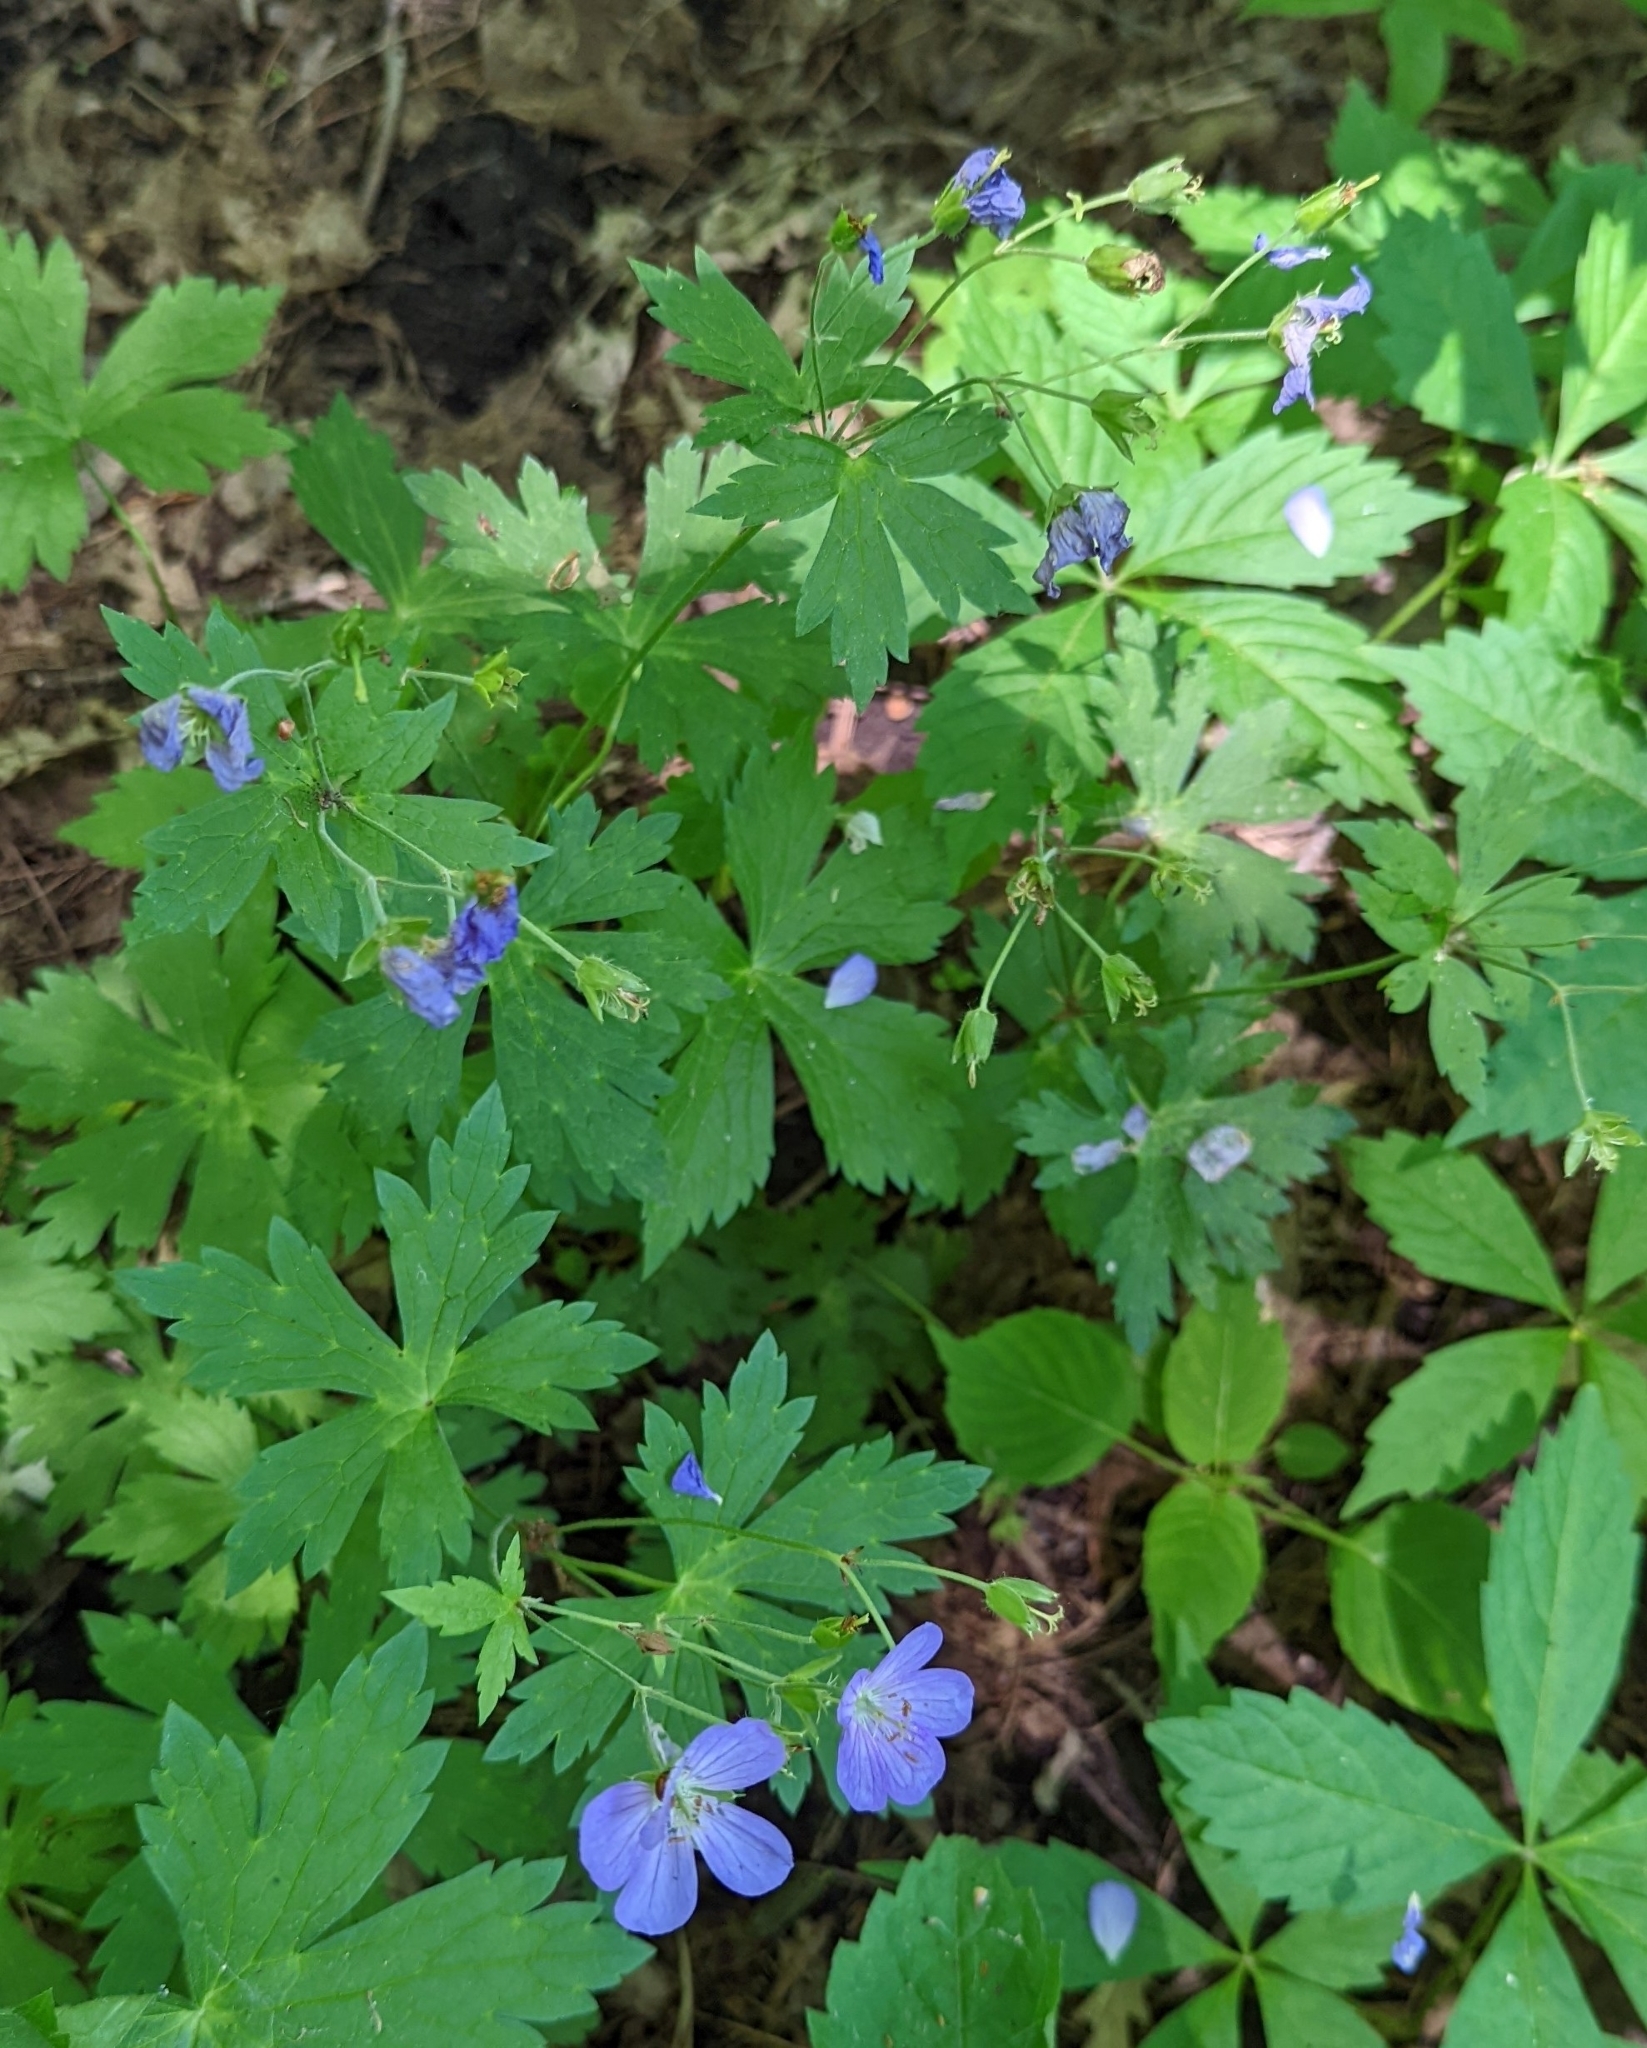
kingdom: Plantae
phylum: Tracheophyta
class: Magnoliopsida
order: Geraniales
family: Geraniaceae
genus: Geranium
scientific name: Geranium maculatum
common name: Spotted geranium
